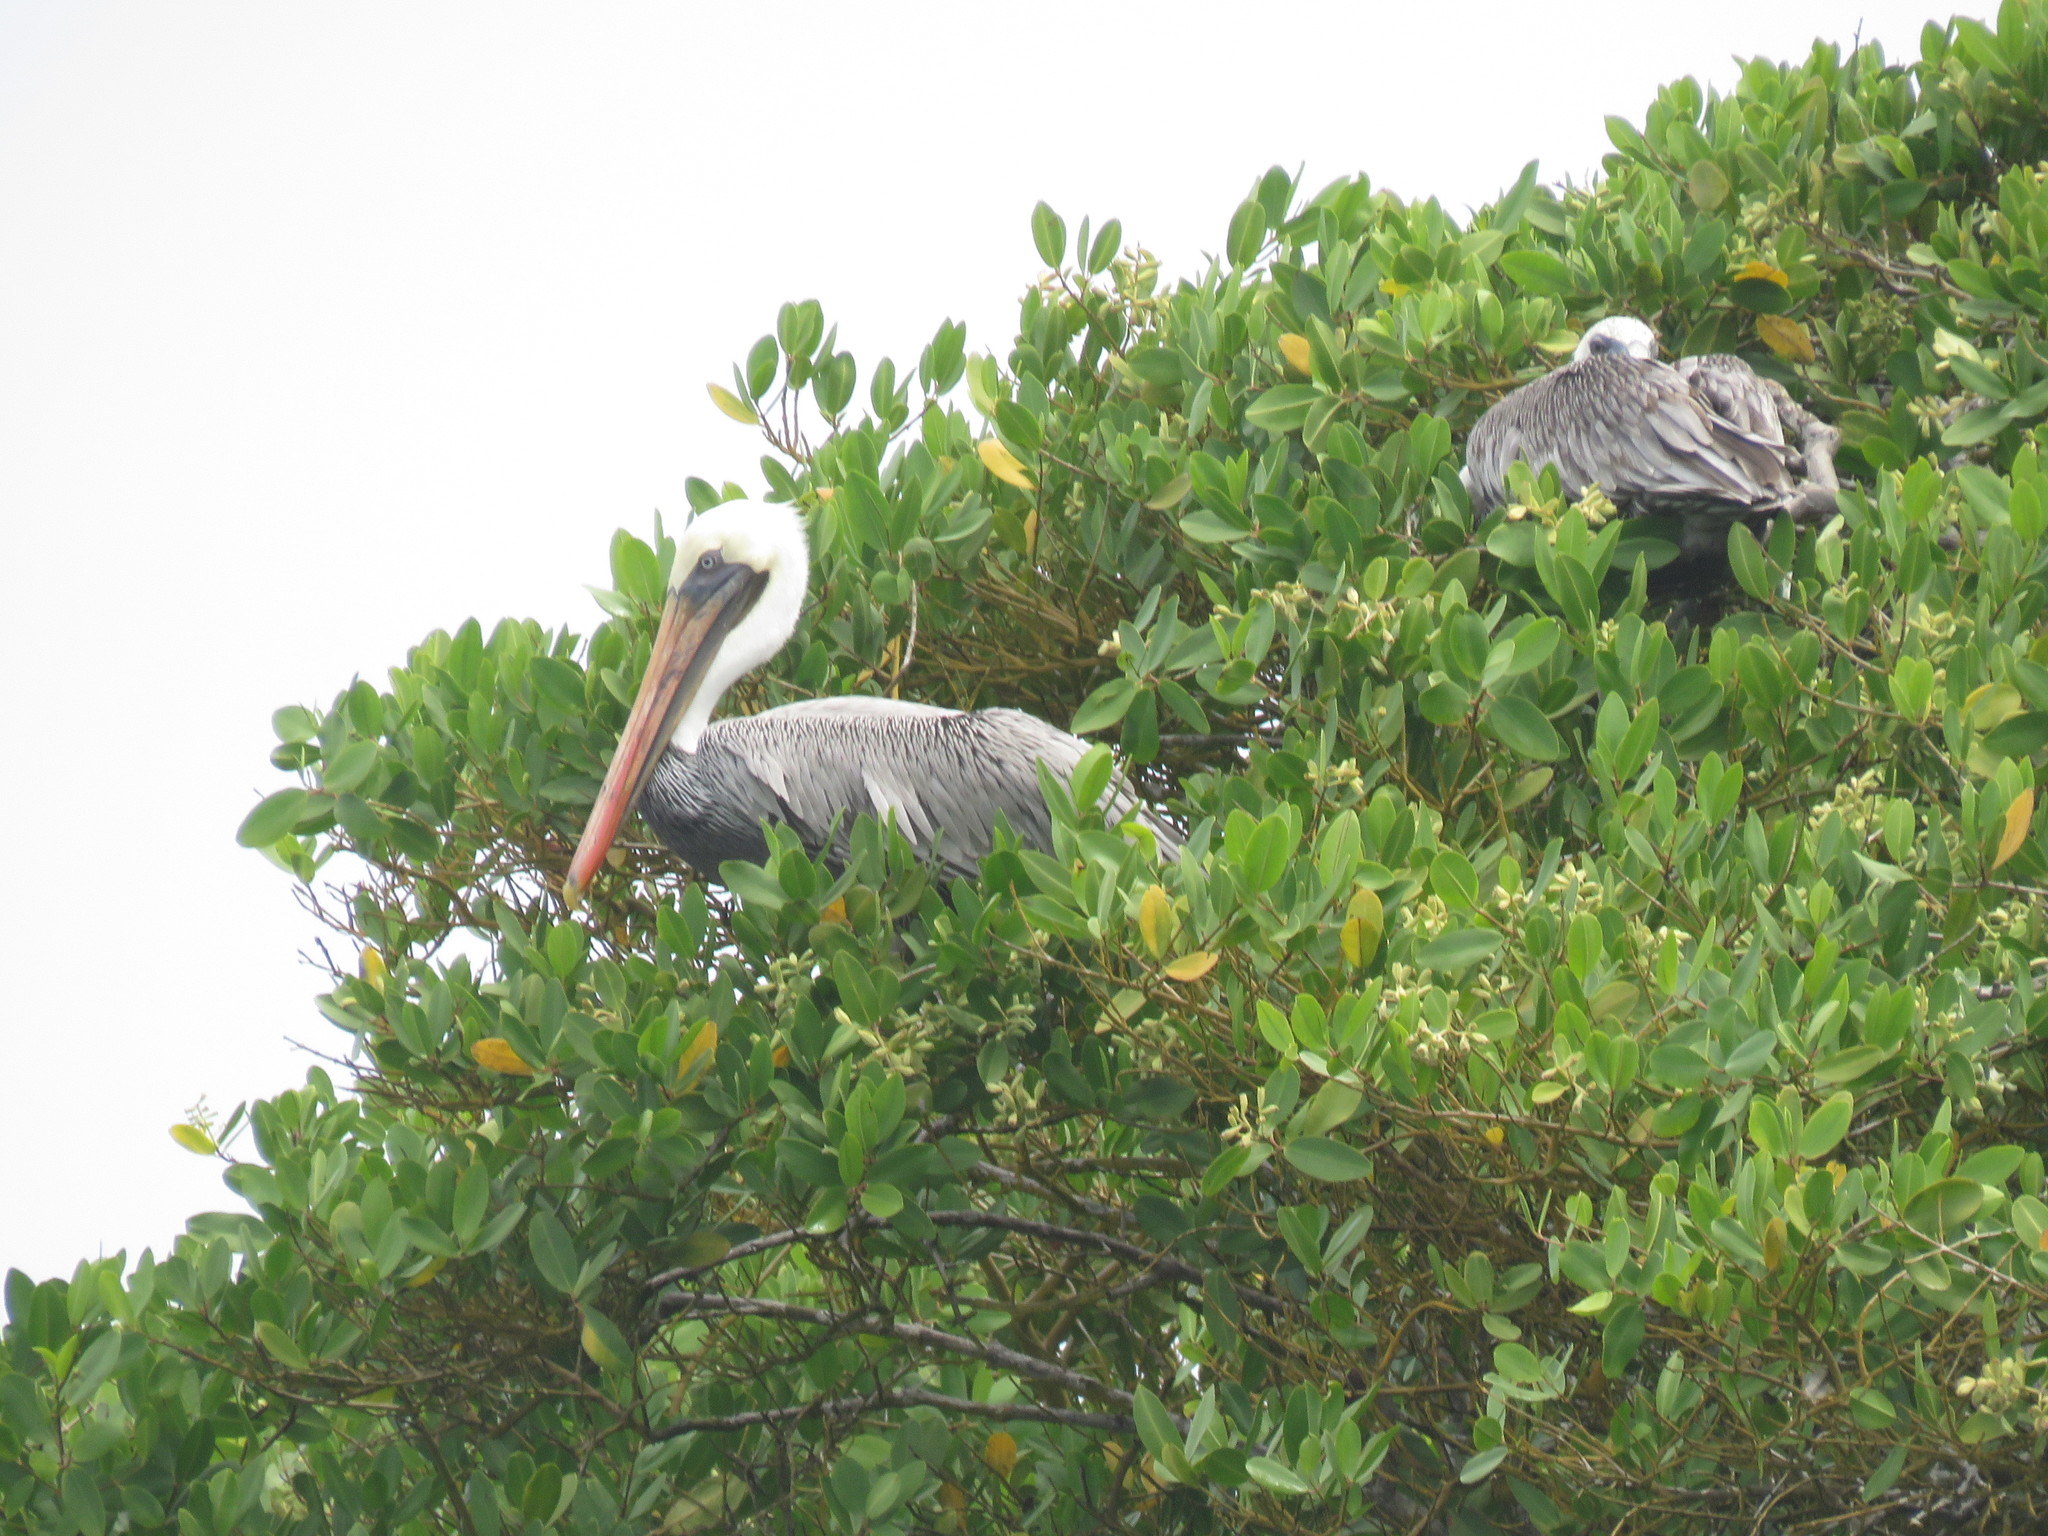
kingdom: Animalia
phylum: Chordata
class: Aves
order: Pelecaniformes
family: Pelecanidae
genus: Pelecanus
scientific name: Pelecanus occidentalis
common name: Brown pelican
